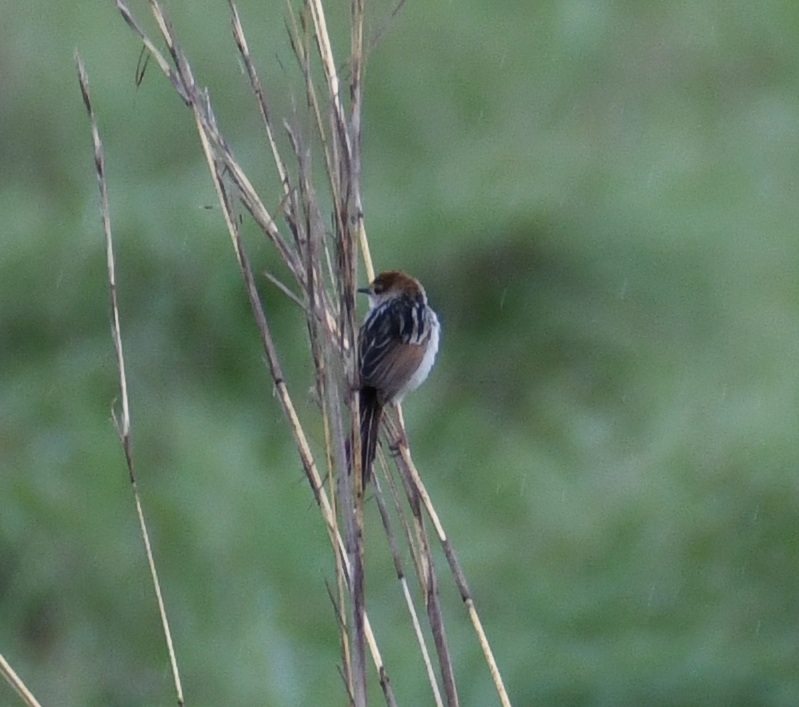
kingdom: Animalia
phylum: Chordata
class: Aves
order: Passeriformes
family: Cisticolidae
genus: Cisticola
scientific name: Cisticola tinniens
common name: Levaillant's cisticola
